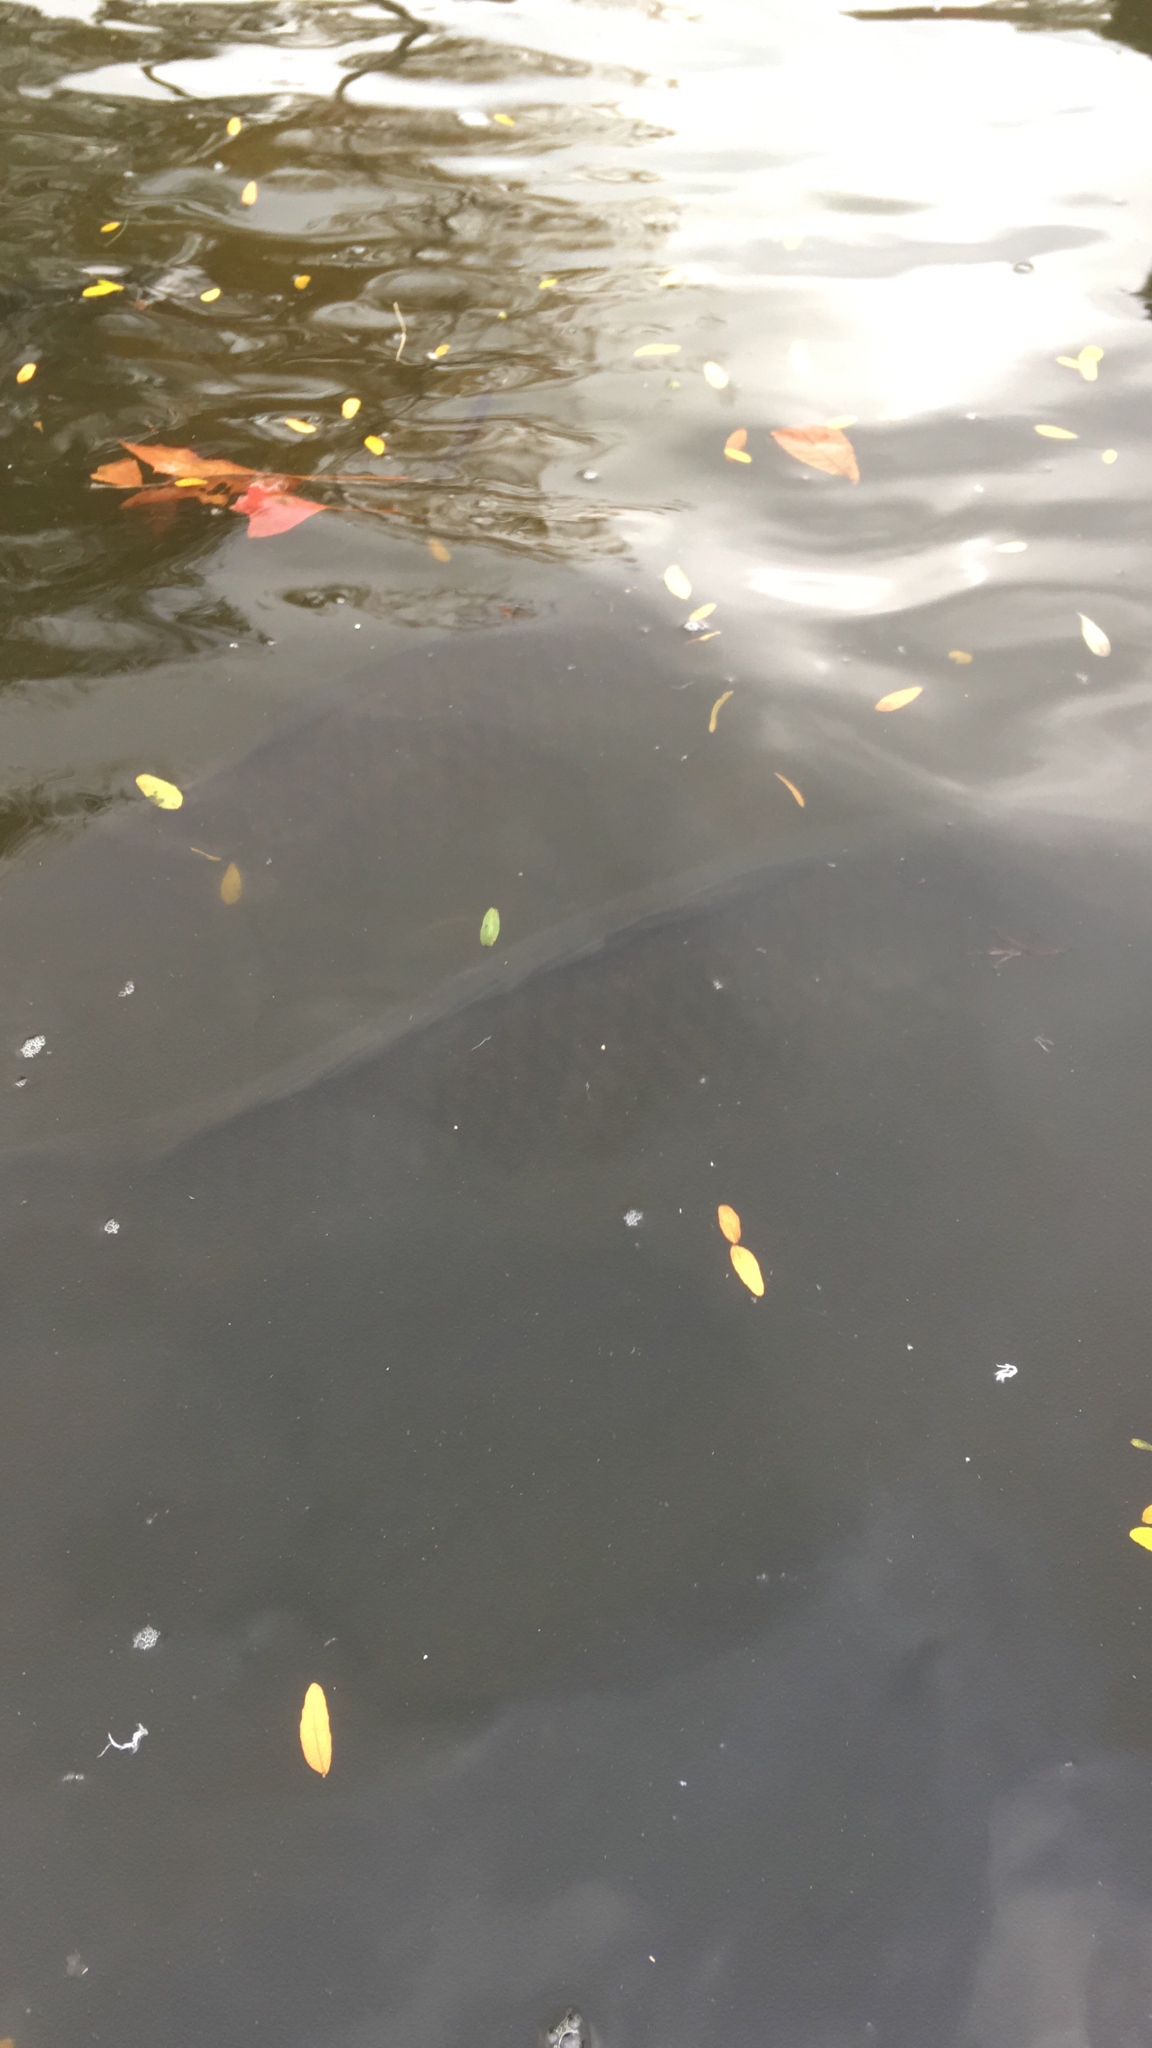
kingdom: Animalia
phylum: Chordata
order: Cypriniformes
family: Cyprinidae
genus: Cyprinus
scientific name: Cyprinus carpio
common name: Common carp
